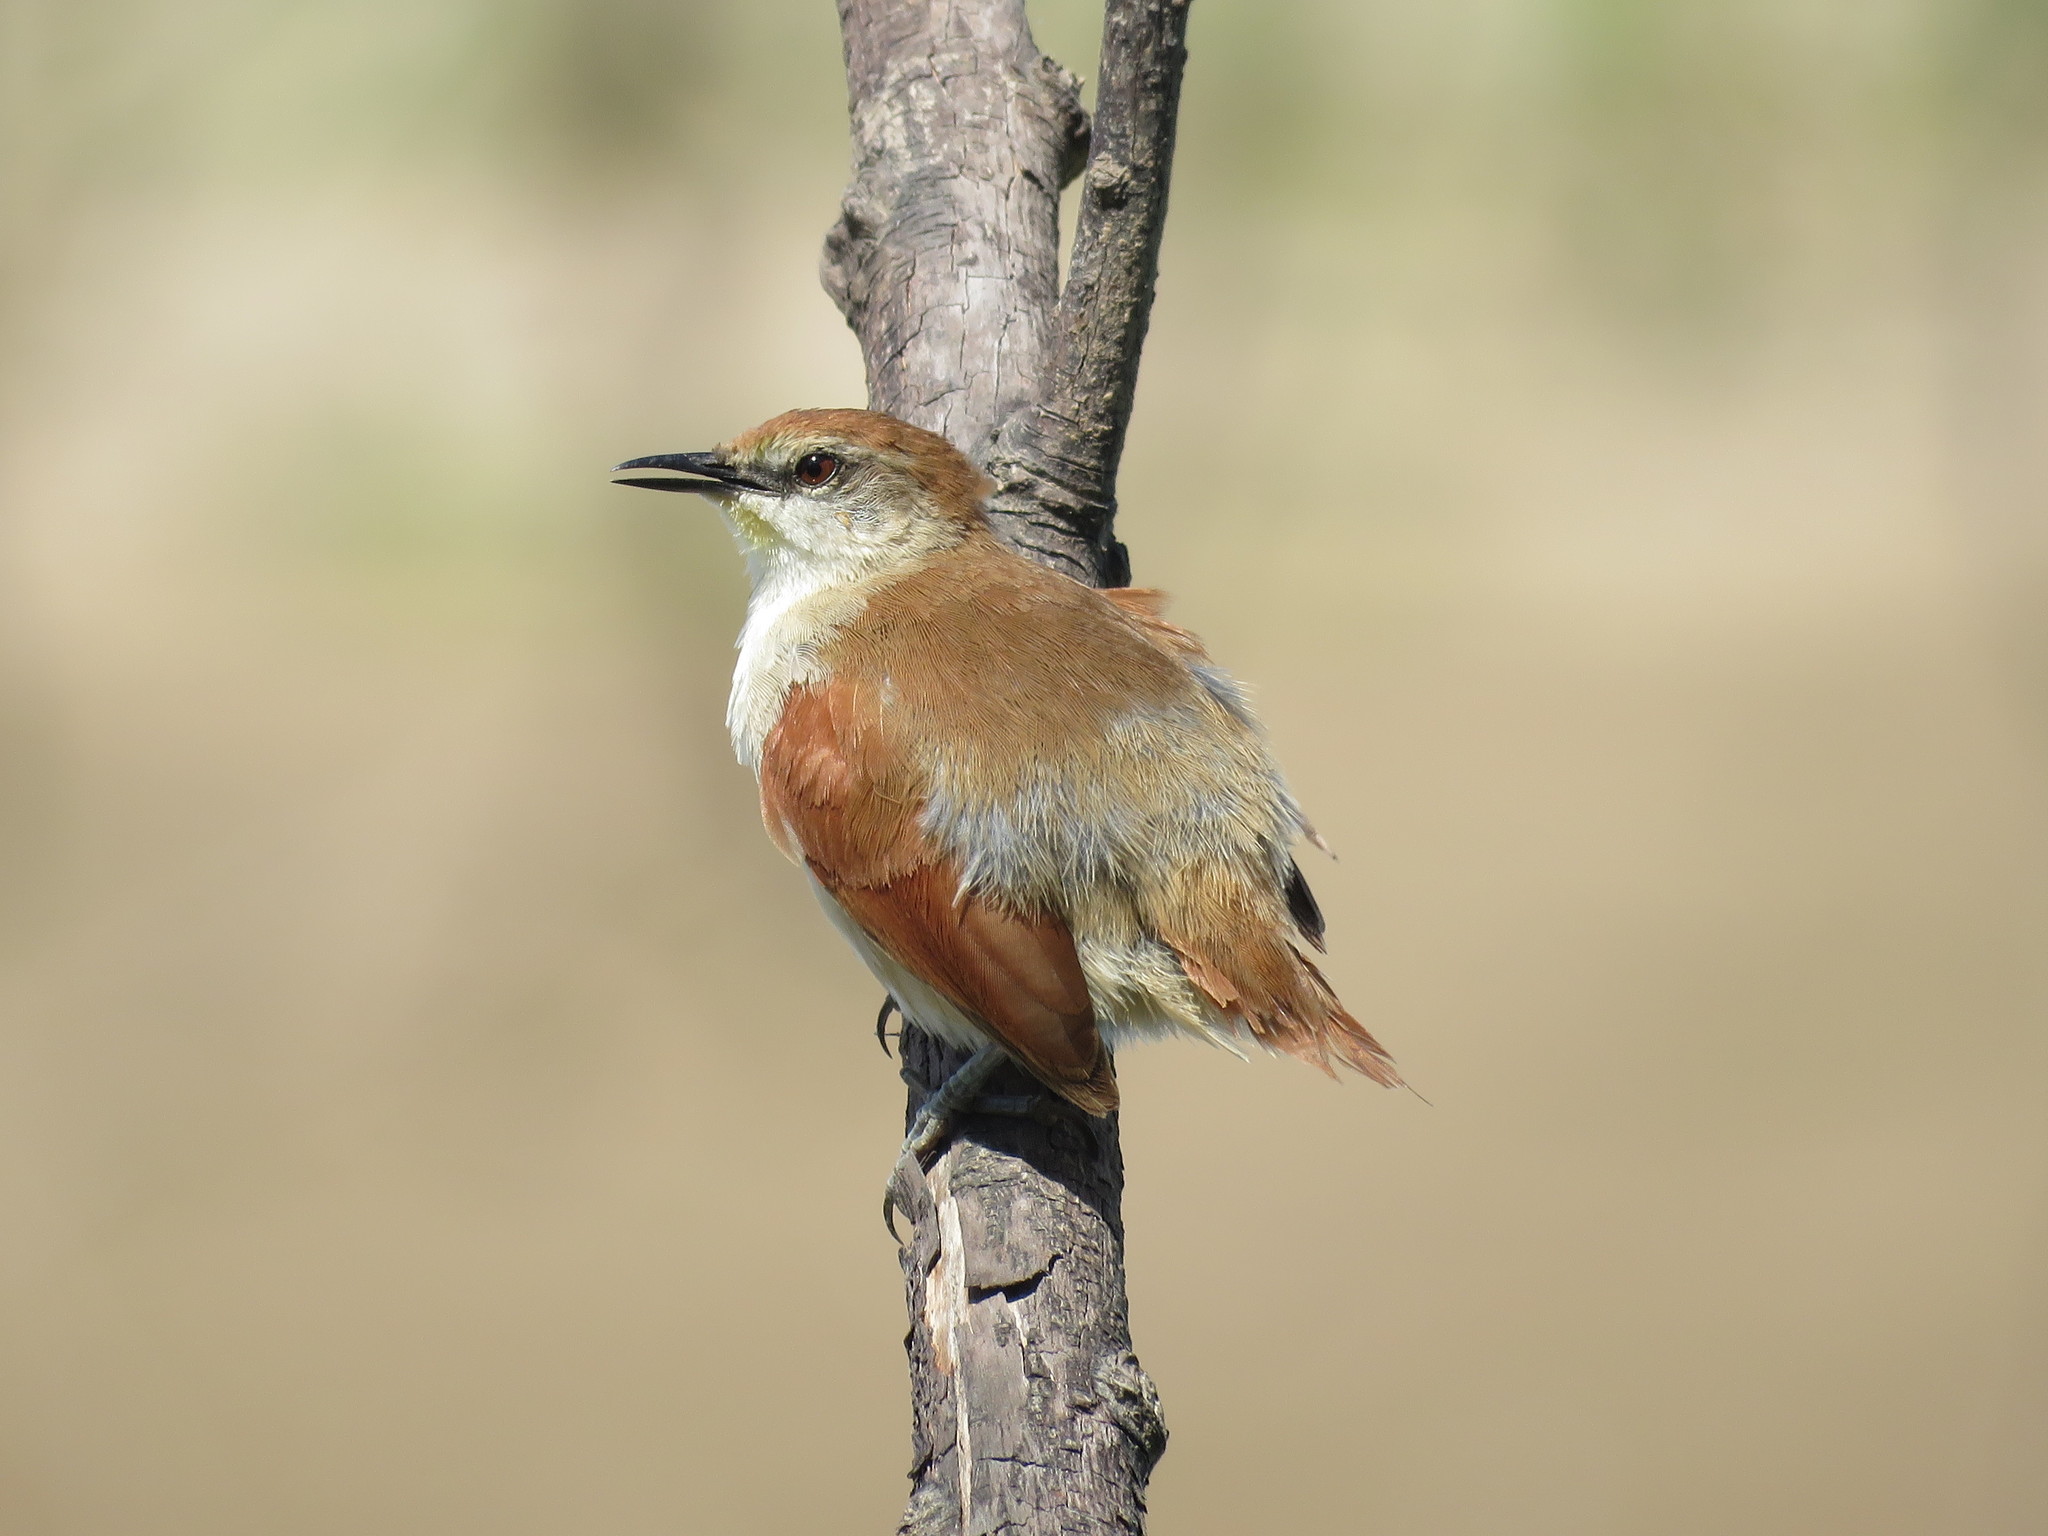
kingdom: Animalia
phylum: Chordata
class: Aves
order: Passeriformes
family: Furnariidae
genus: Certhiaxis
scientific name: Certhiaxis cinnamomeus
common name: Yellow-chinned spinetail
